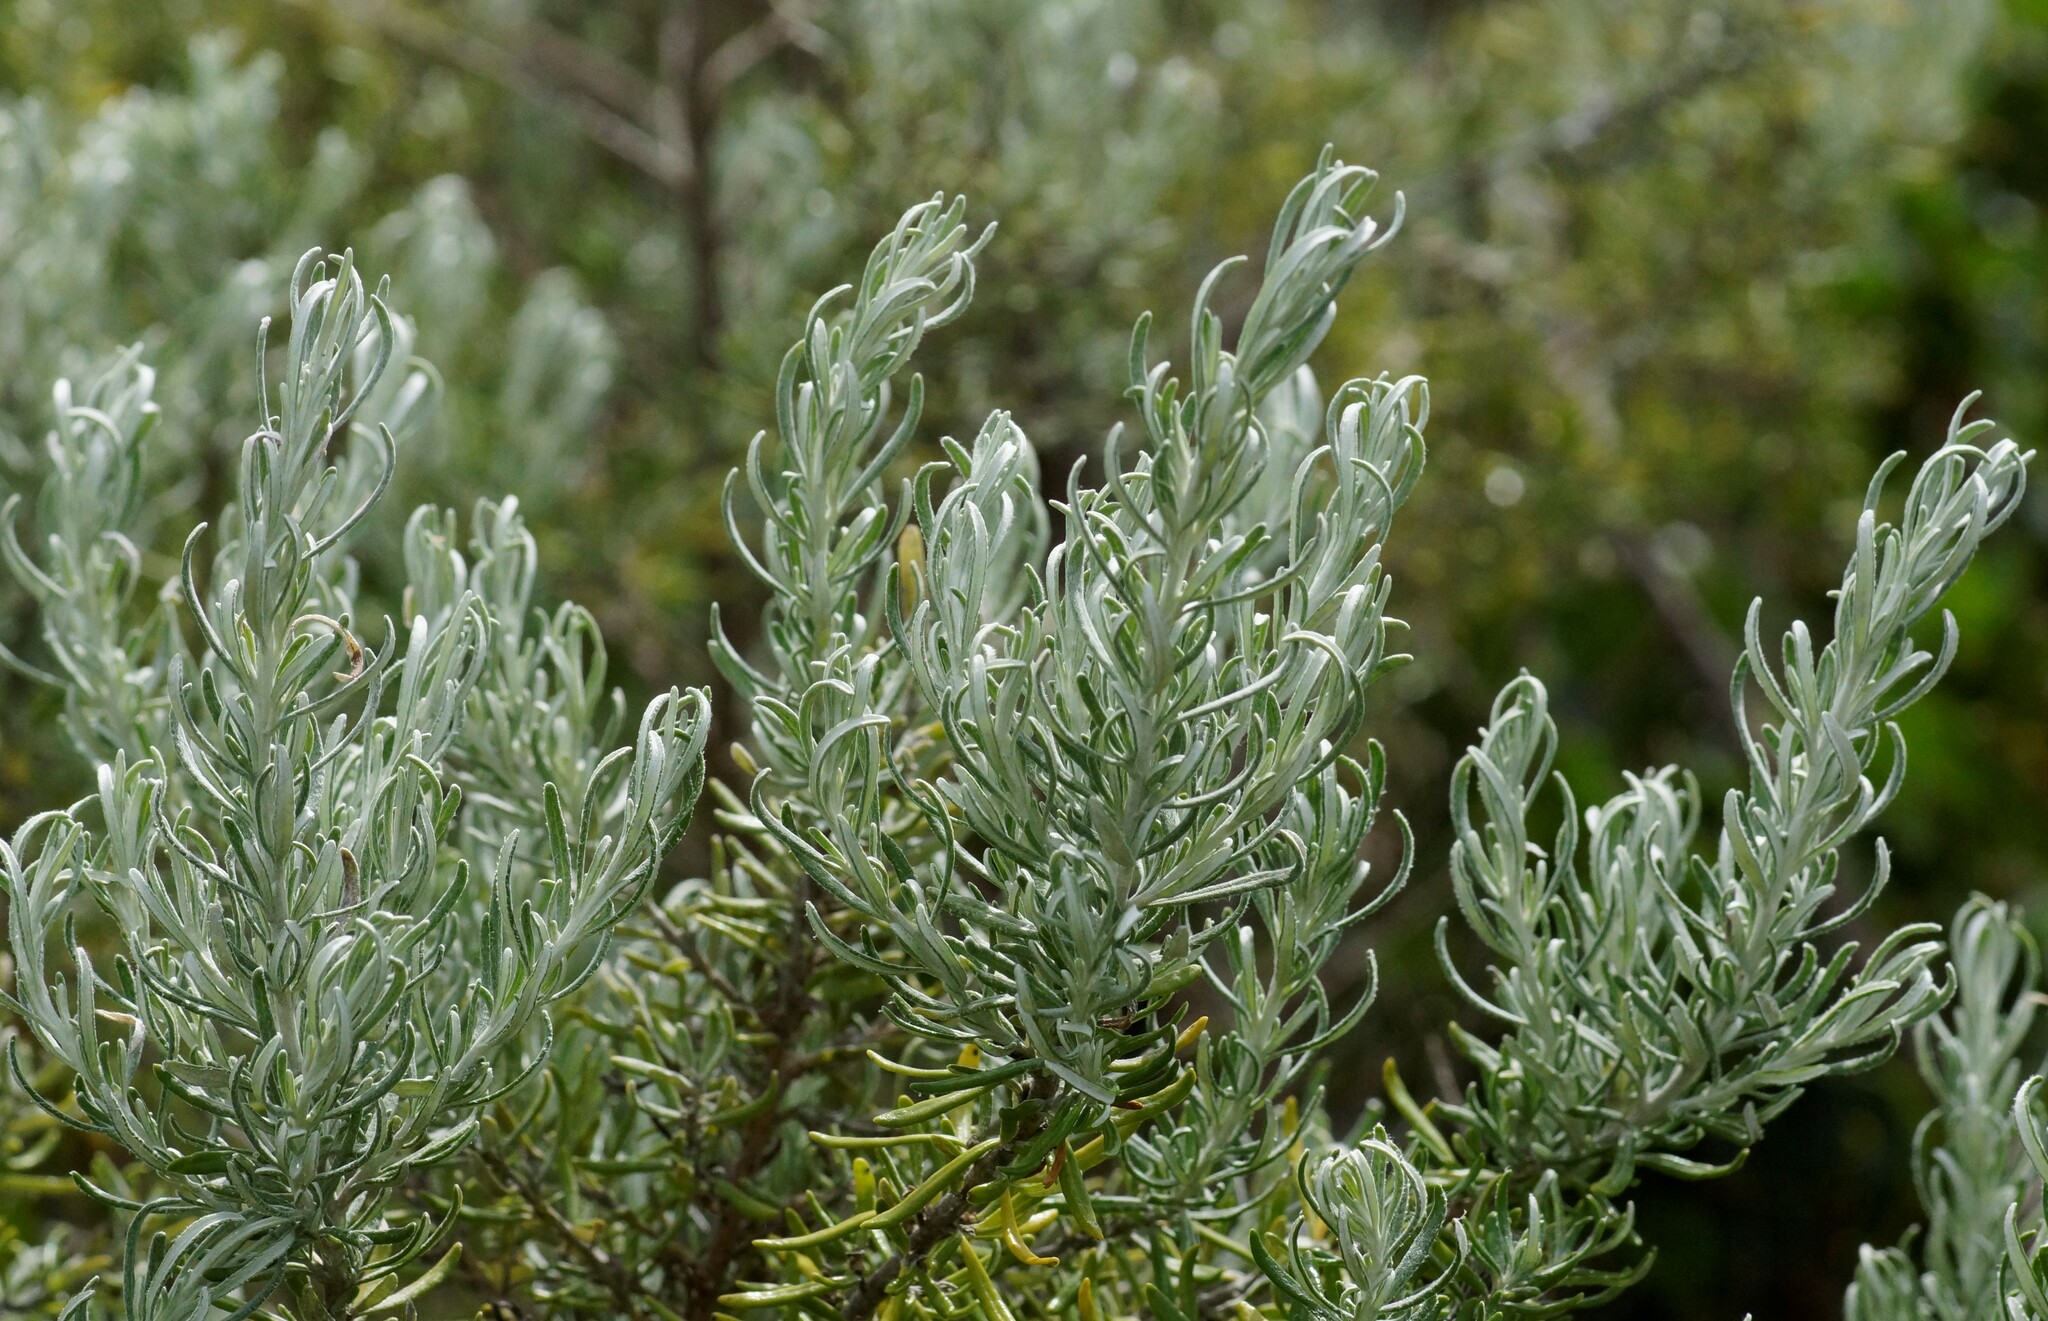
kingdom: Plantae
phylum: Tracheophyta
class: Magnoliopsida
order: Asterales
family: Asteraceae
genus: Olearia
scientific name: Olearia axillaris
